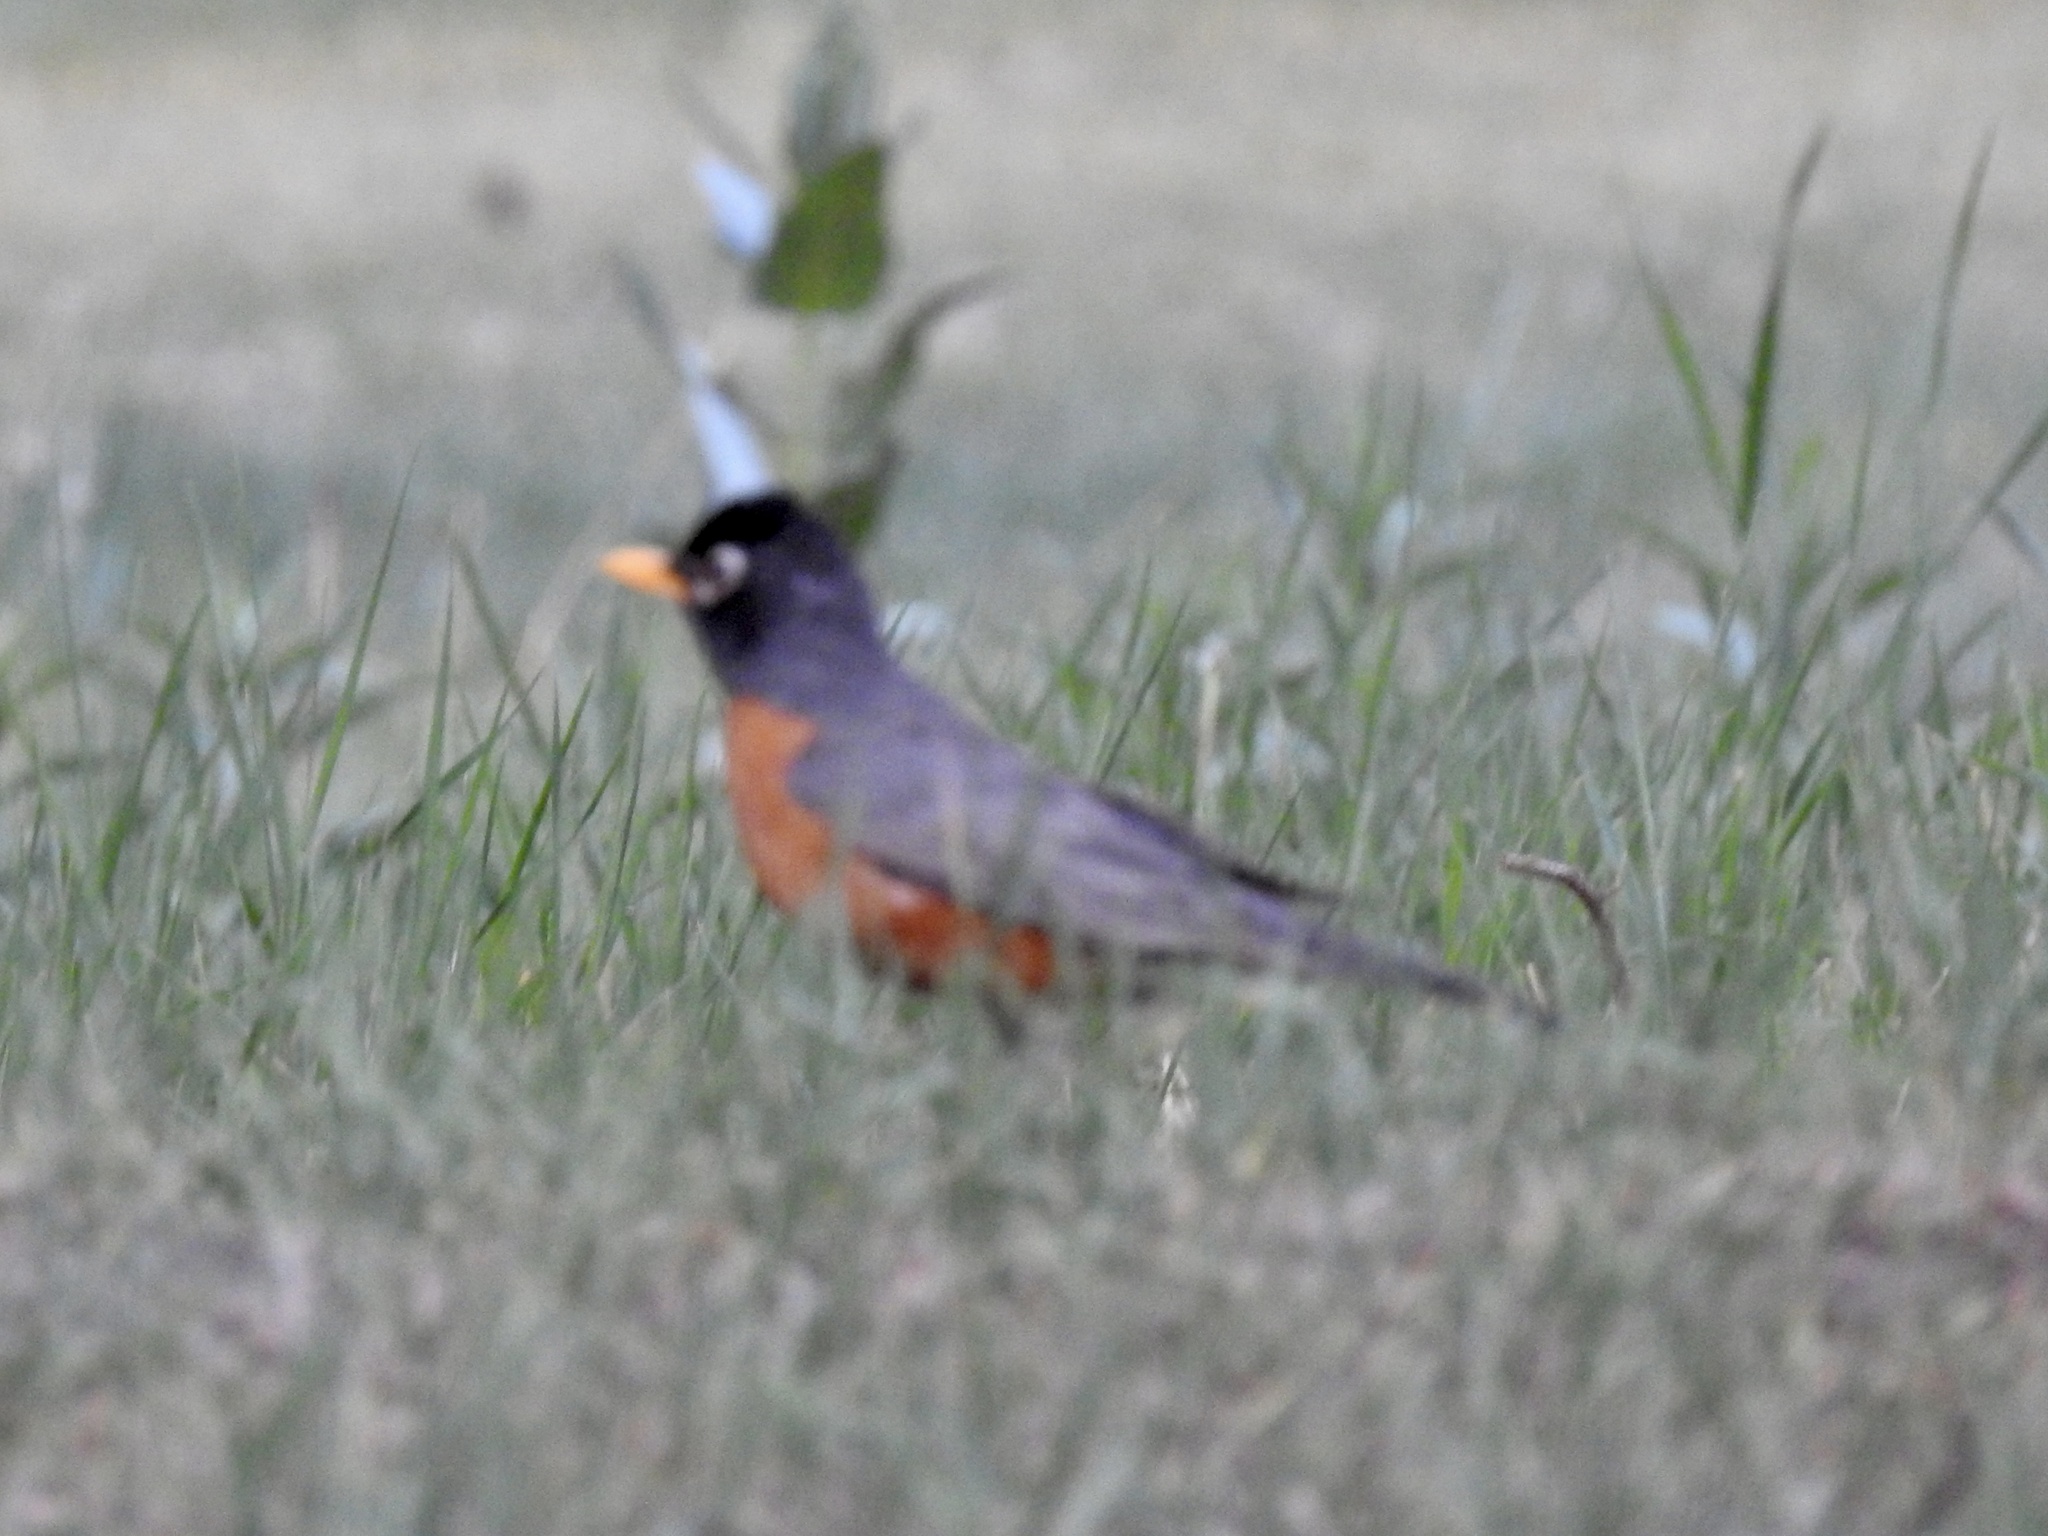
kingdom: Animalia
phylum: Chordata
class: Aves
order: Passeriformes
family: Turdidae
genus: Turdus
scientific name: Turdus migratorius
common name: American robin
